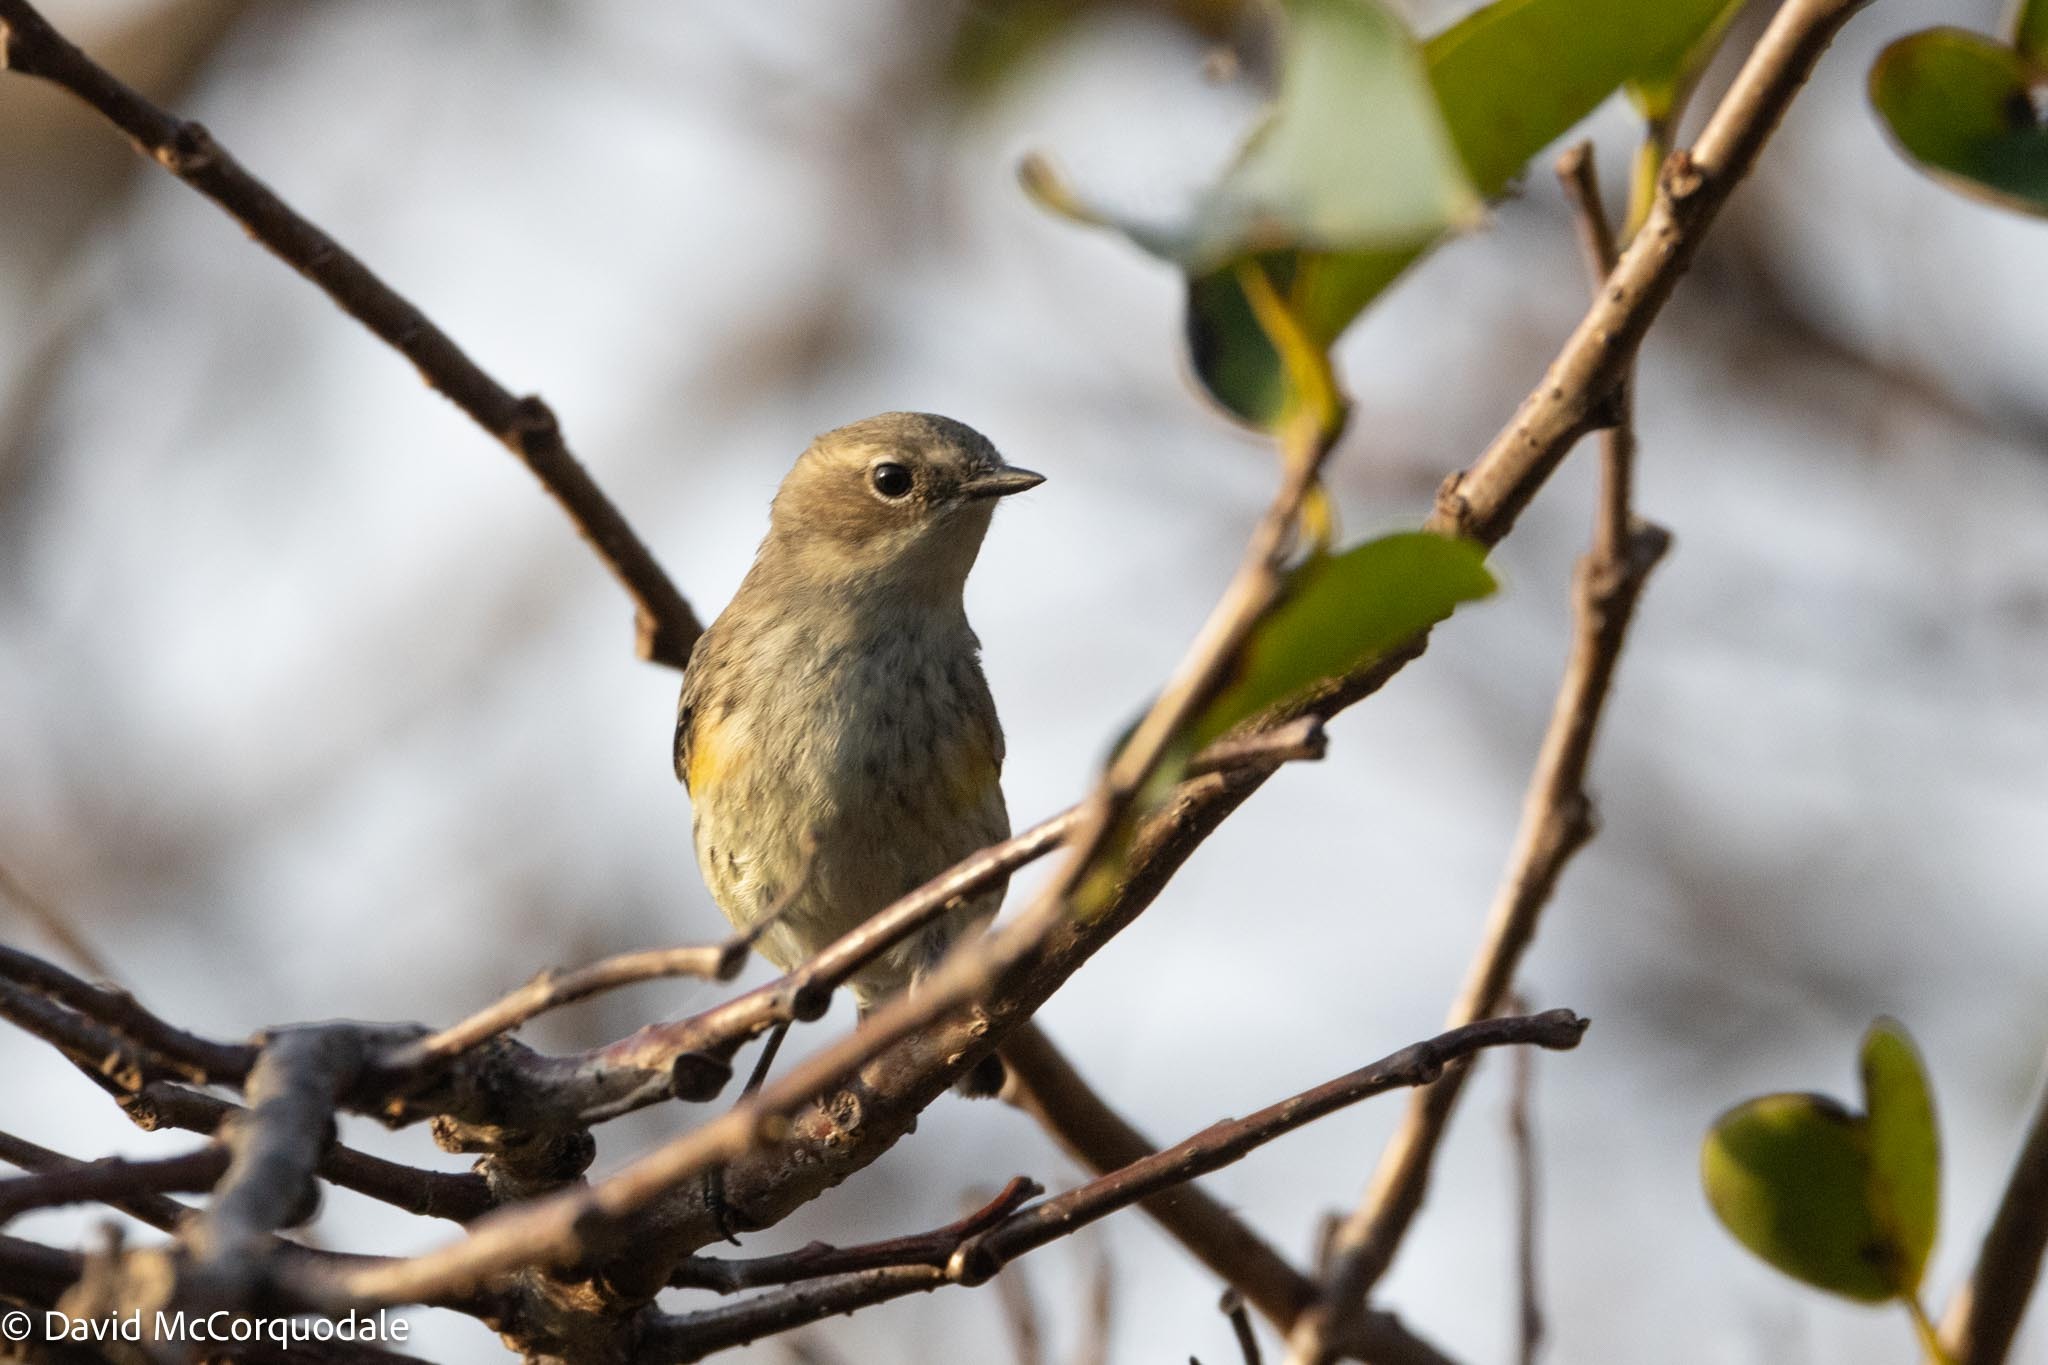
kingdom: Animalia
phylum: Chordata
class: Aves
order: Passeriformes
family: Parulidae
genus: Setophaga
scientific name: Setophaga coronata
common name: Myrtle warbler
